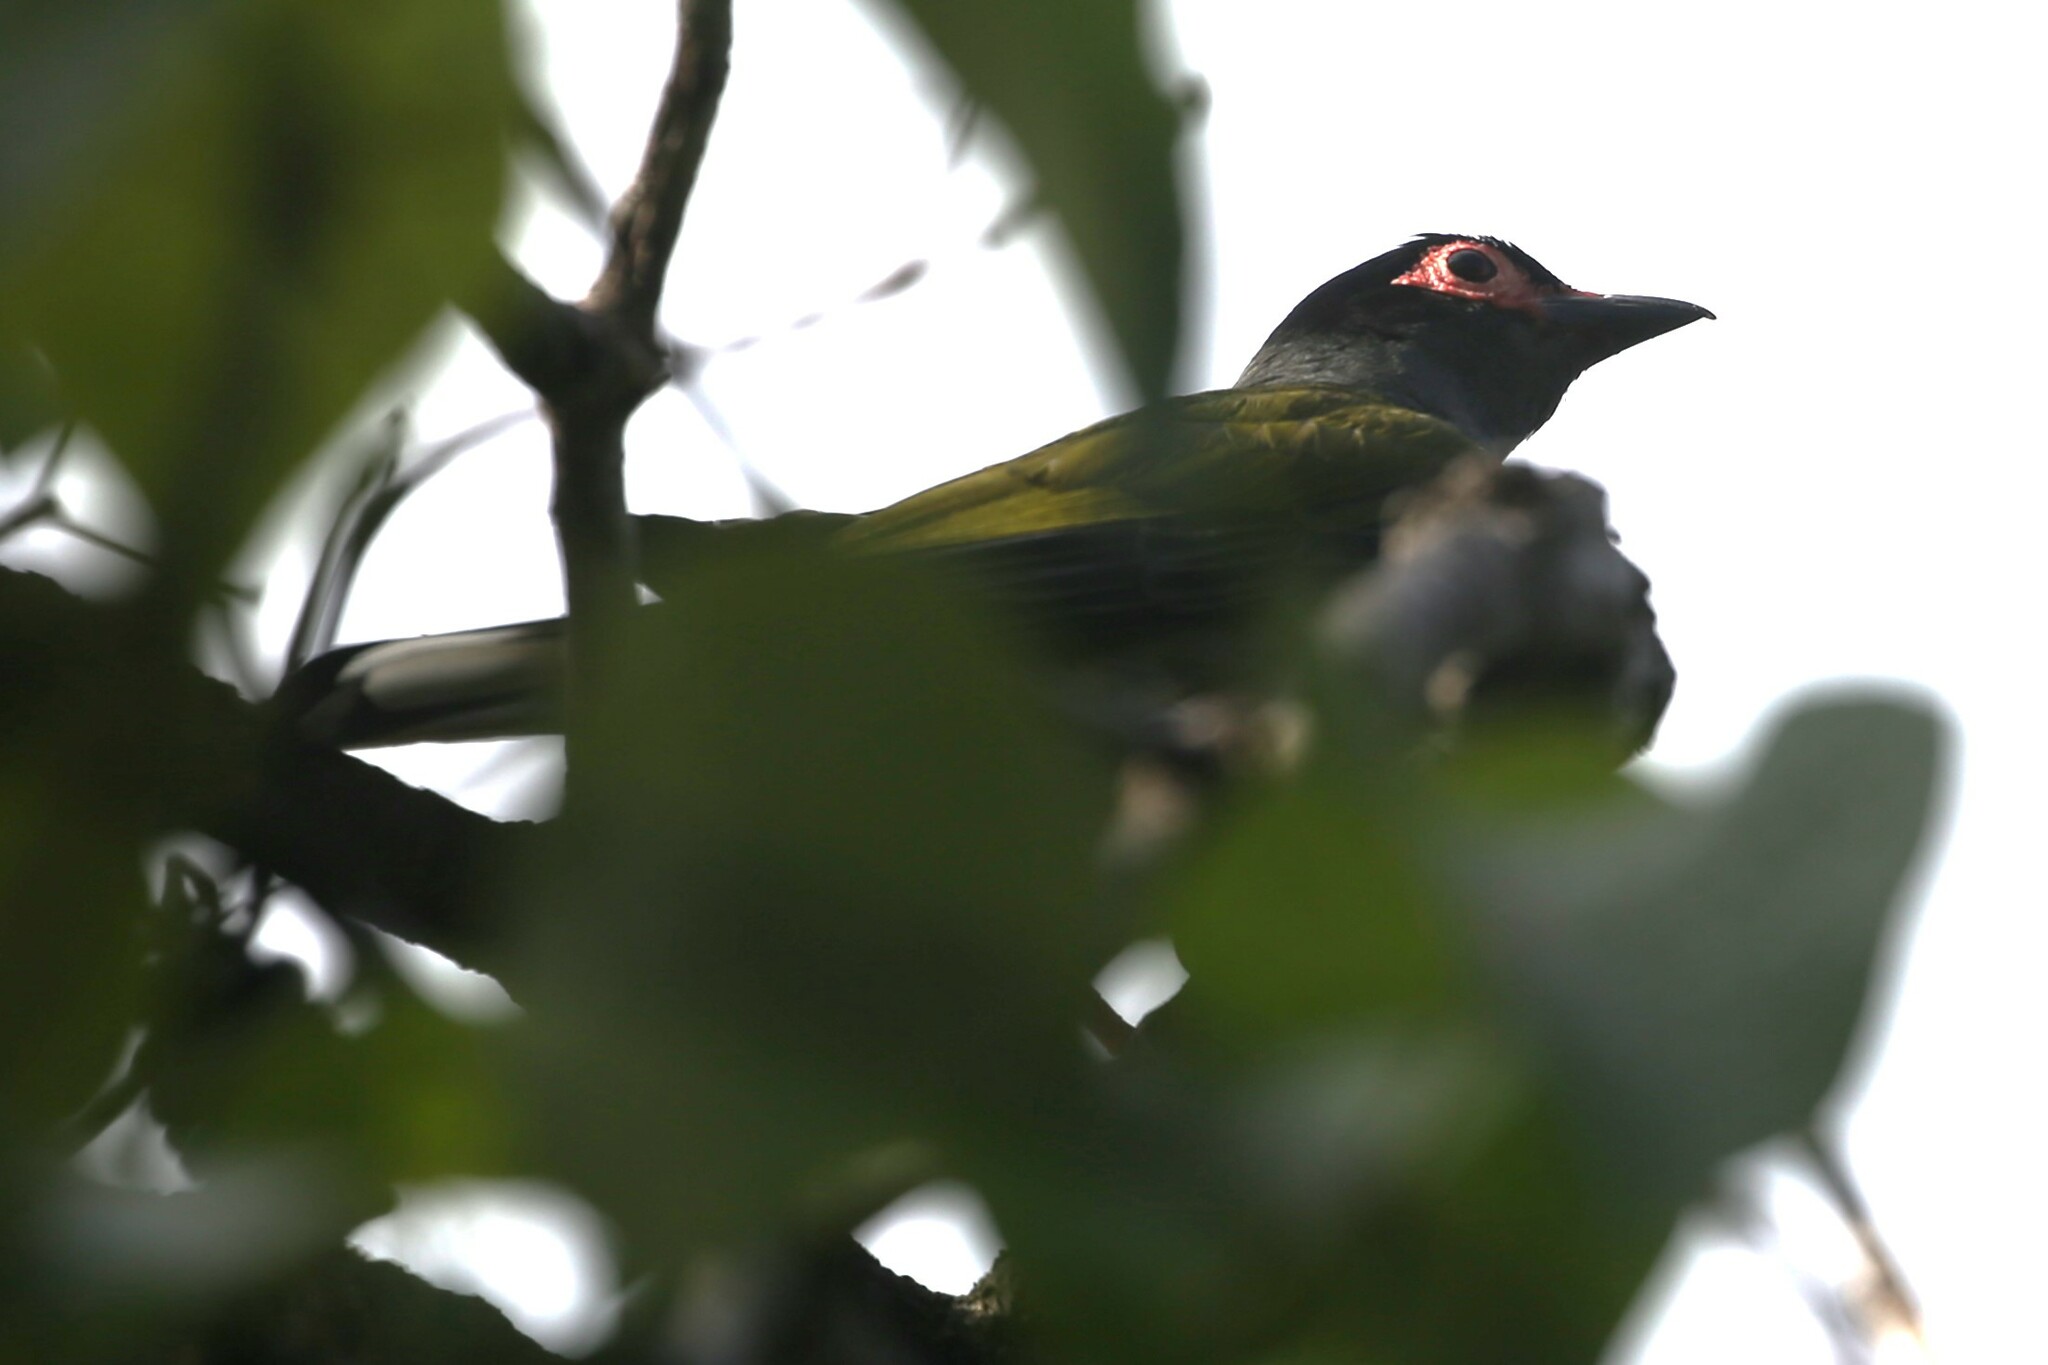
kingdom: Animalia
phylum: Chordata
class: Aves
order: Passeriformes
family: Oriolidae
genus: Sphecotheres
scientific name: Sphecotheres vieilloti
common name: Australasian figbird
